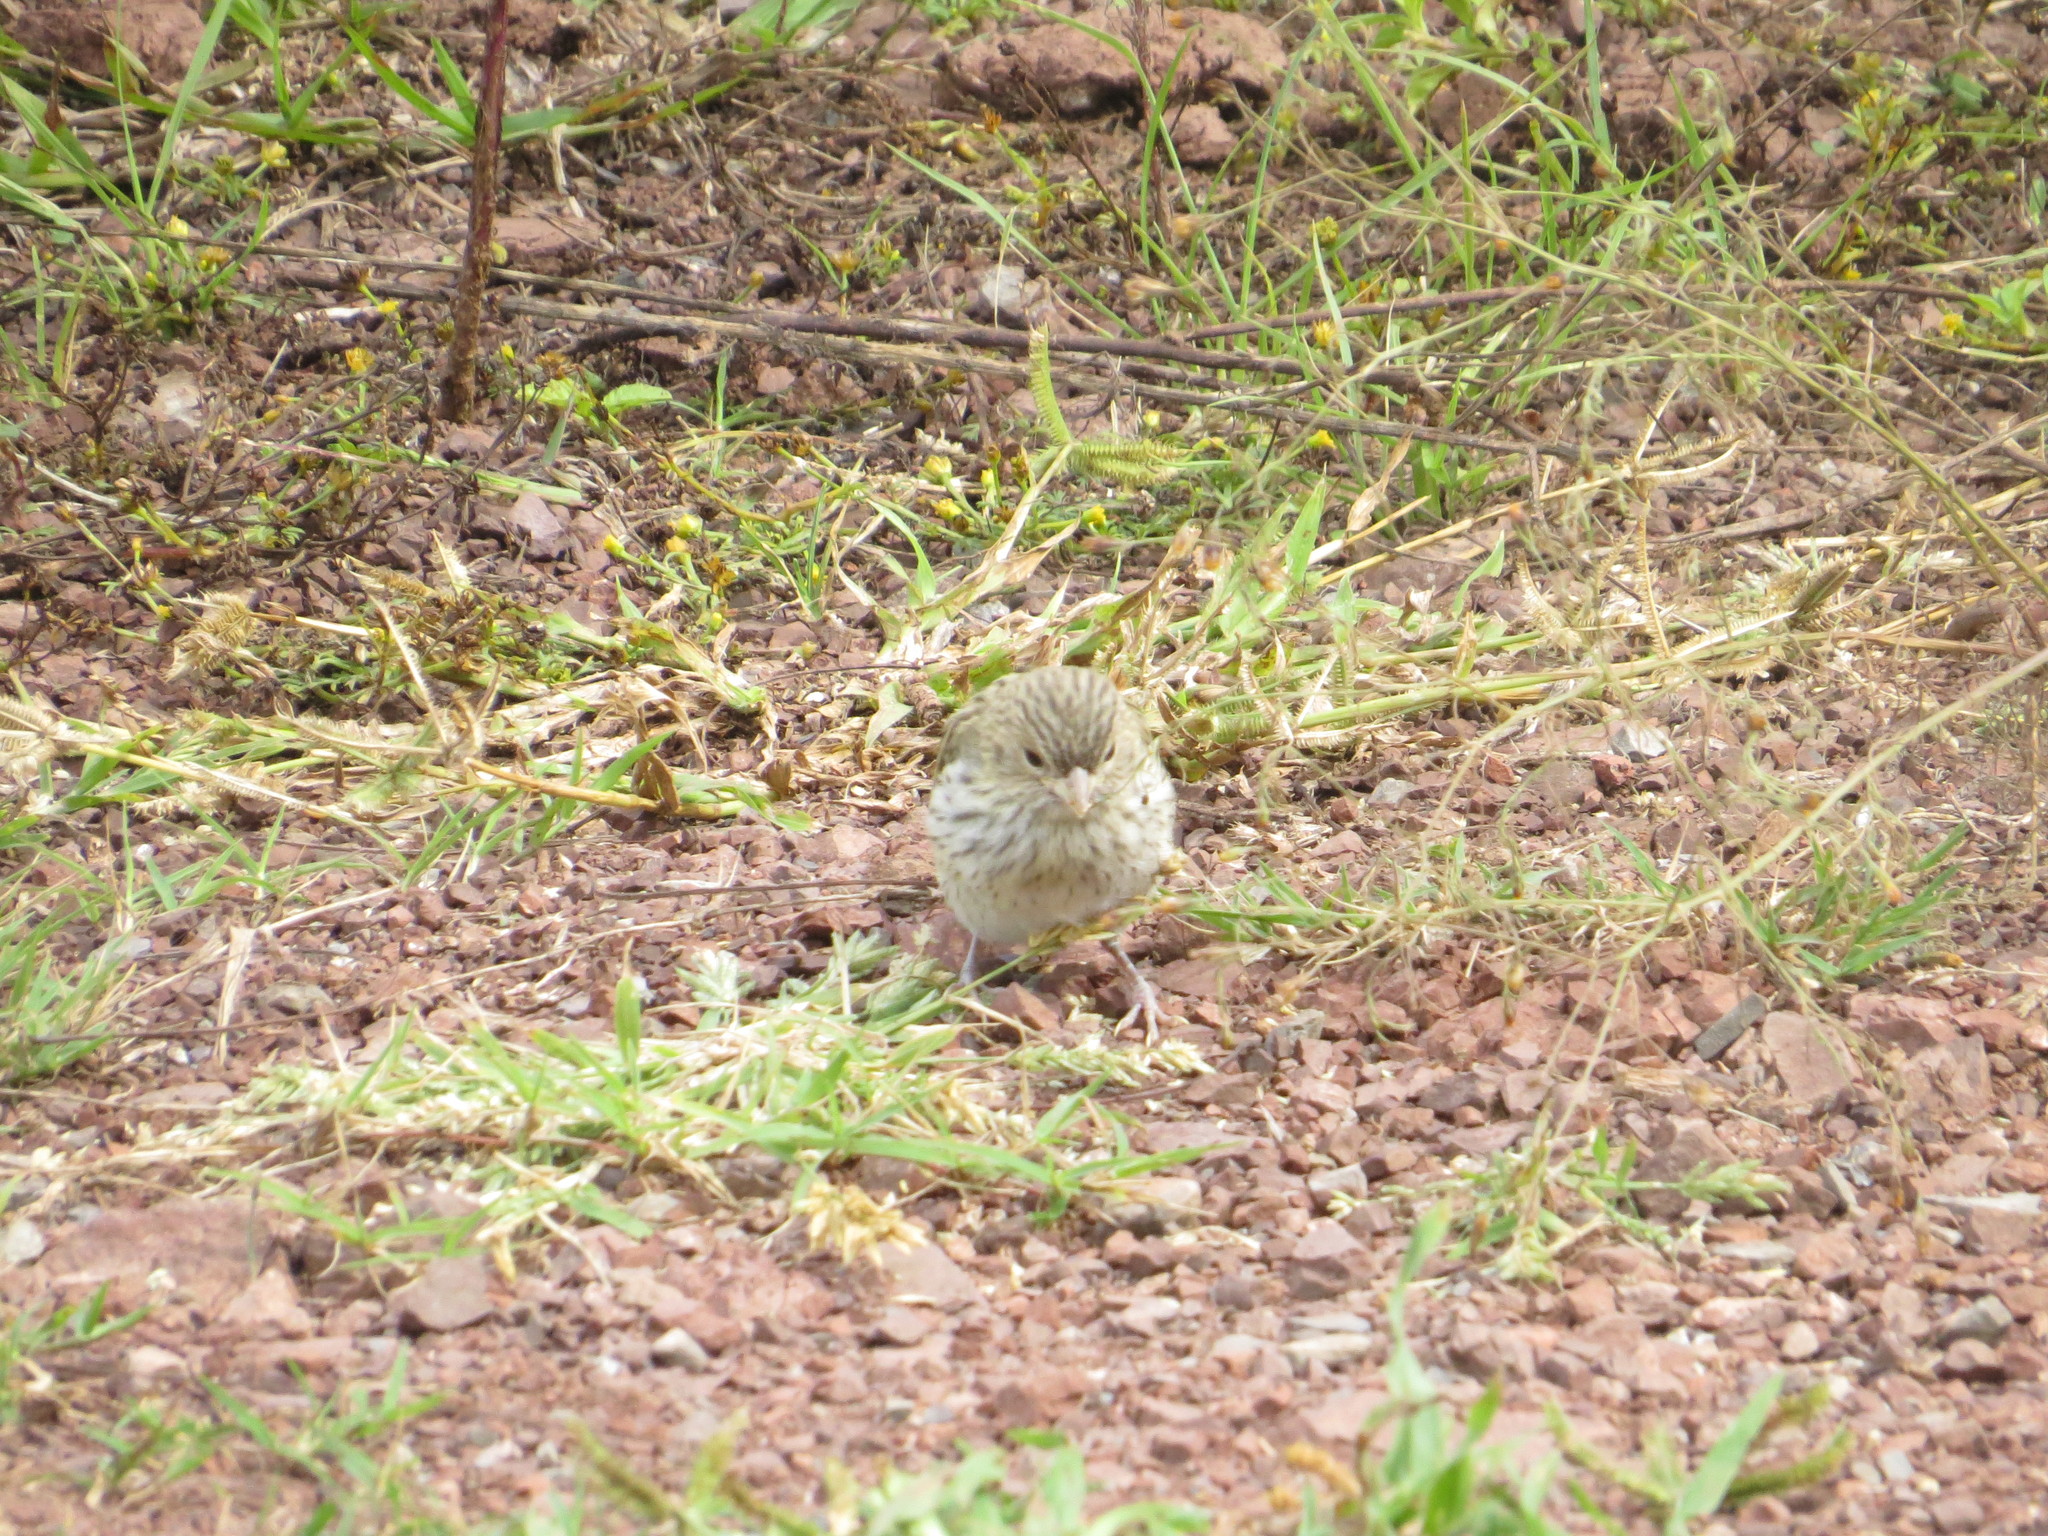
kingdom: Animalia
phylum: Chordata
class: Aves
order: Passeriformes
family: Thraupidae
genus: Sicalis
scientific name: Sicalis flaveola
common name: Saffron finch
